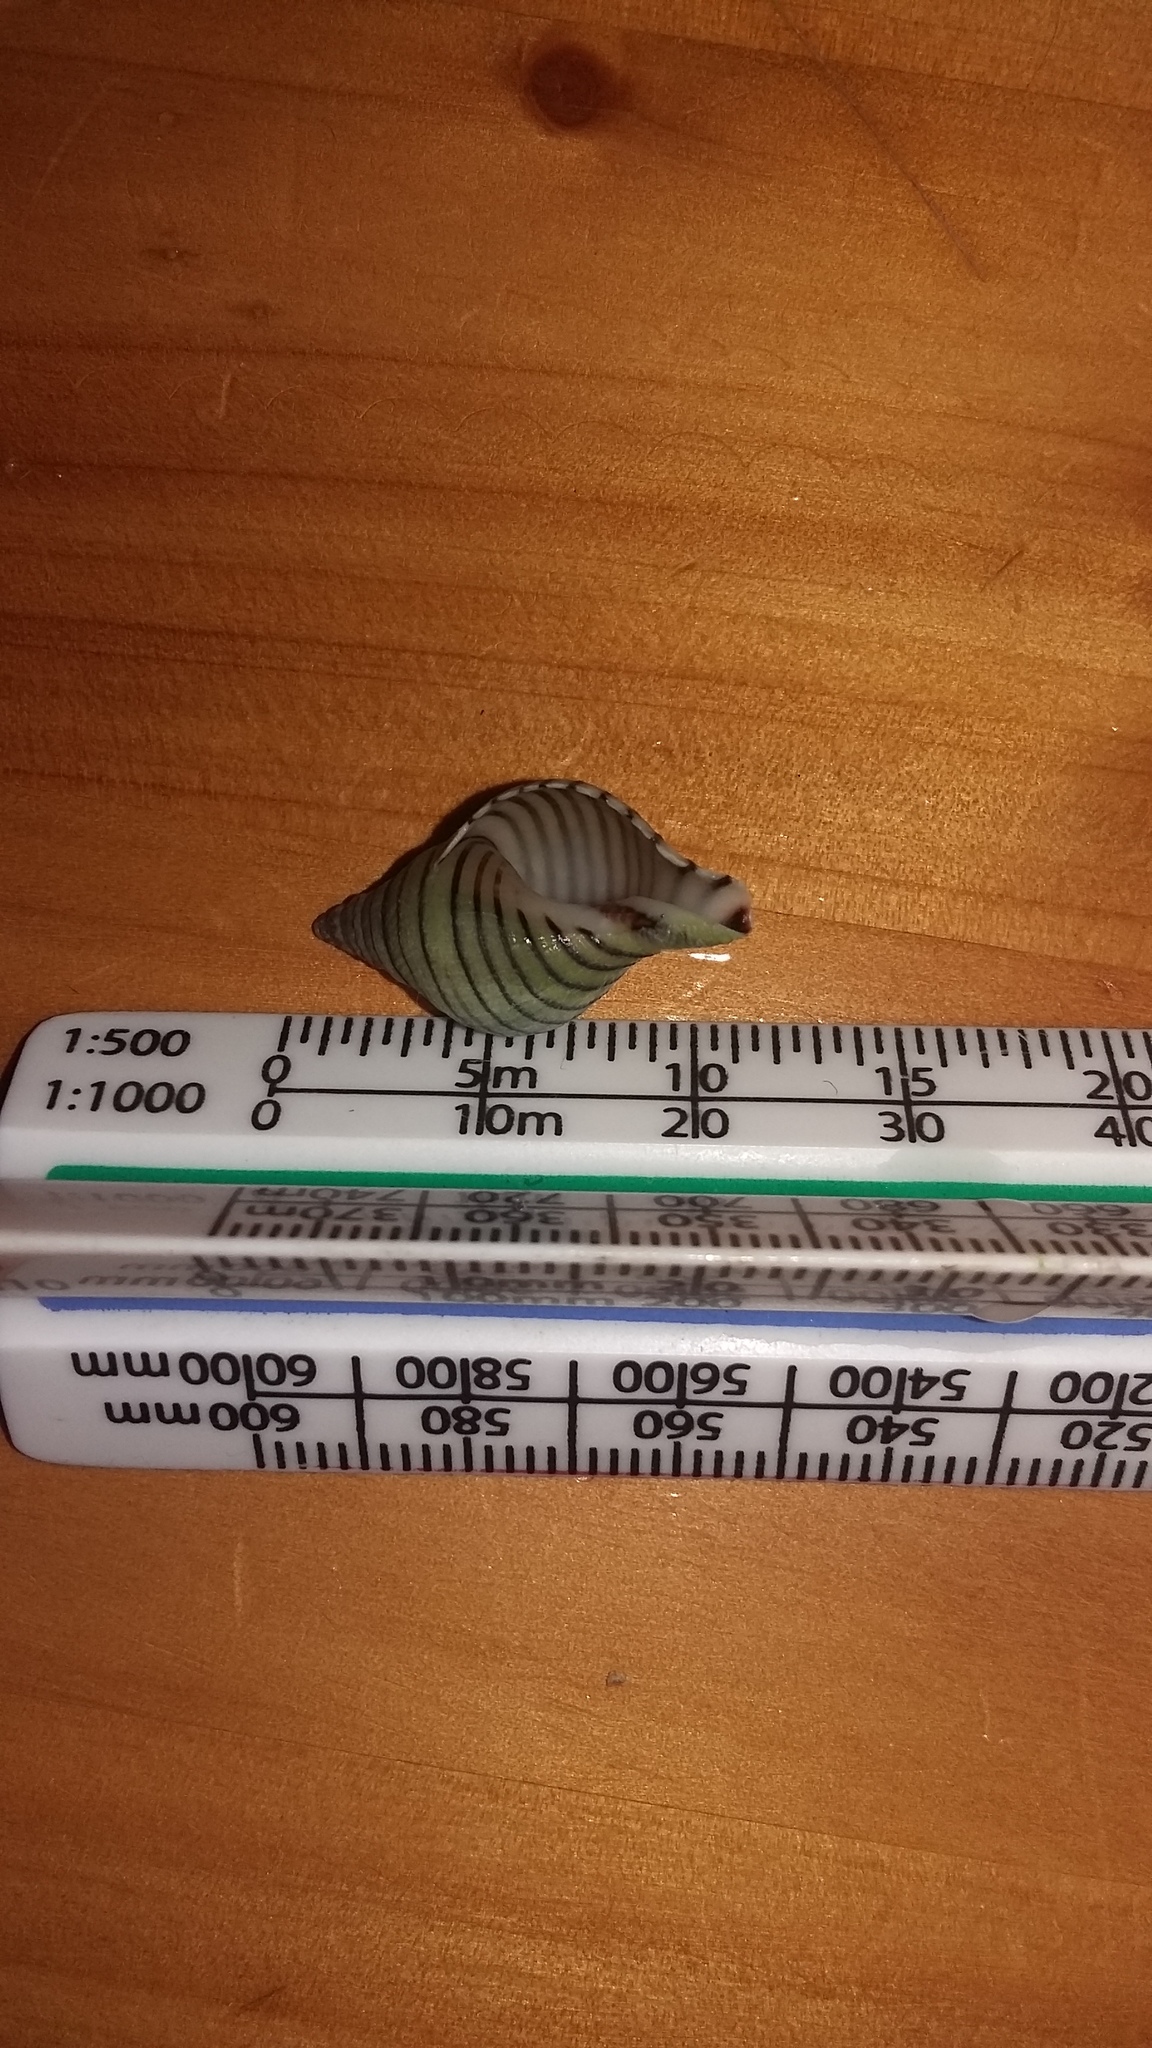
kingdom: Animalia
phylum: Mollusca
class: Gastropoda
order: Neogastropoda
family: Tudiclidae
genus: Buccinulum
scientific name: Buccinulum linea
